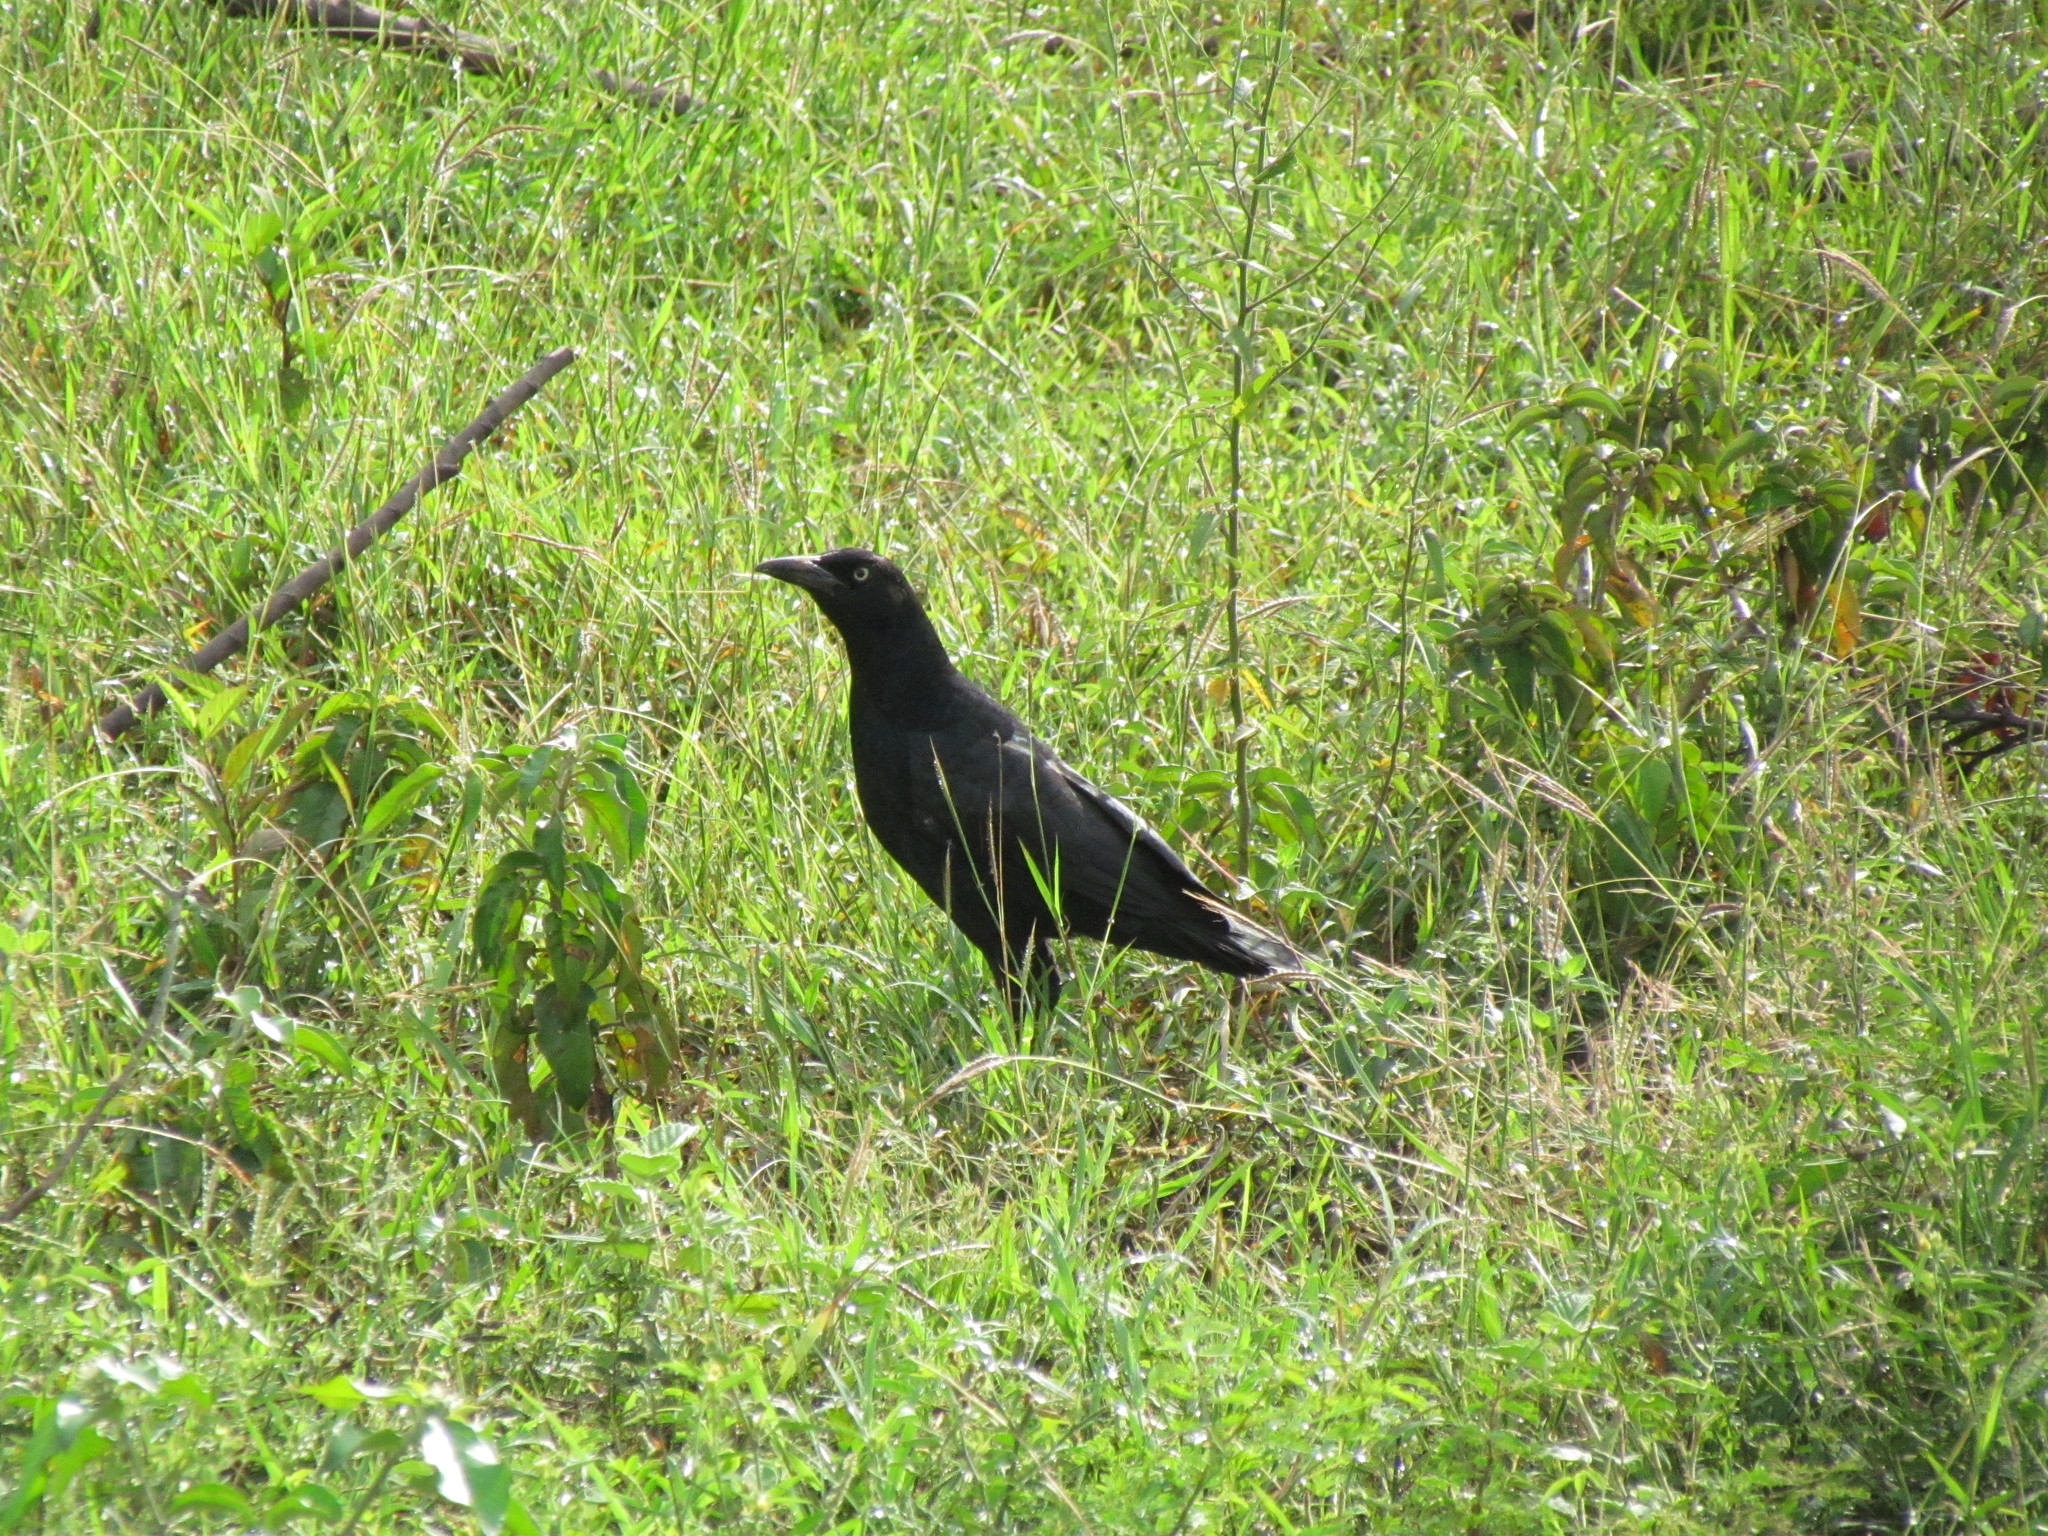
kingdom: Animalia
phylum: Chordata
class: Aves
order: Passeriformes
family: Icteridae
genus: Quiscalus
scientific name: Quiscalus mexicanus
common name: Great-tailed grackle
